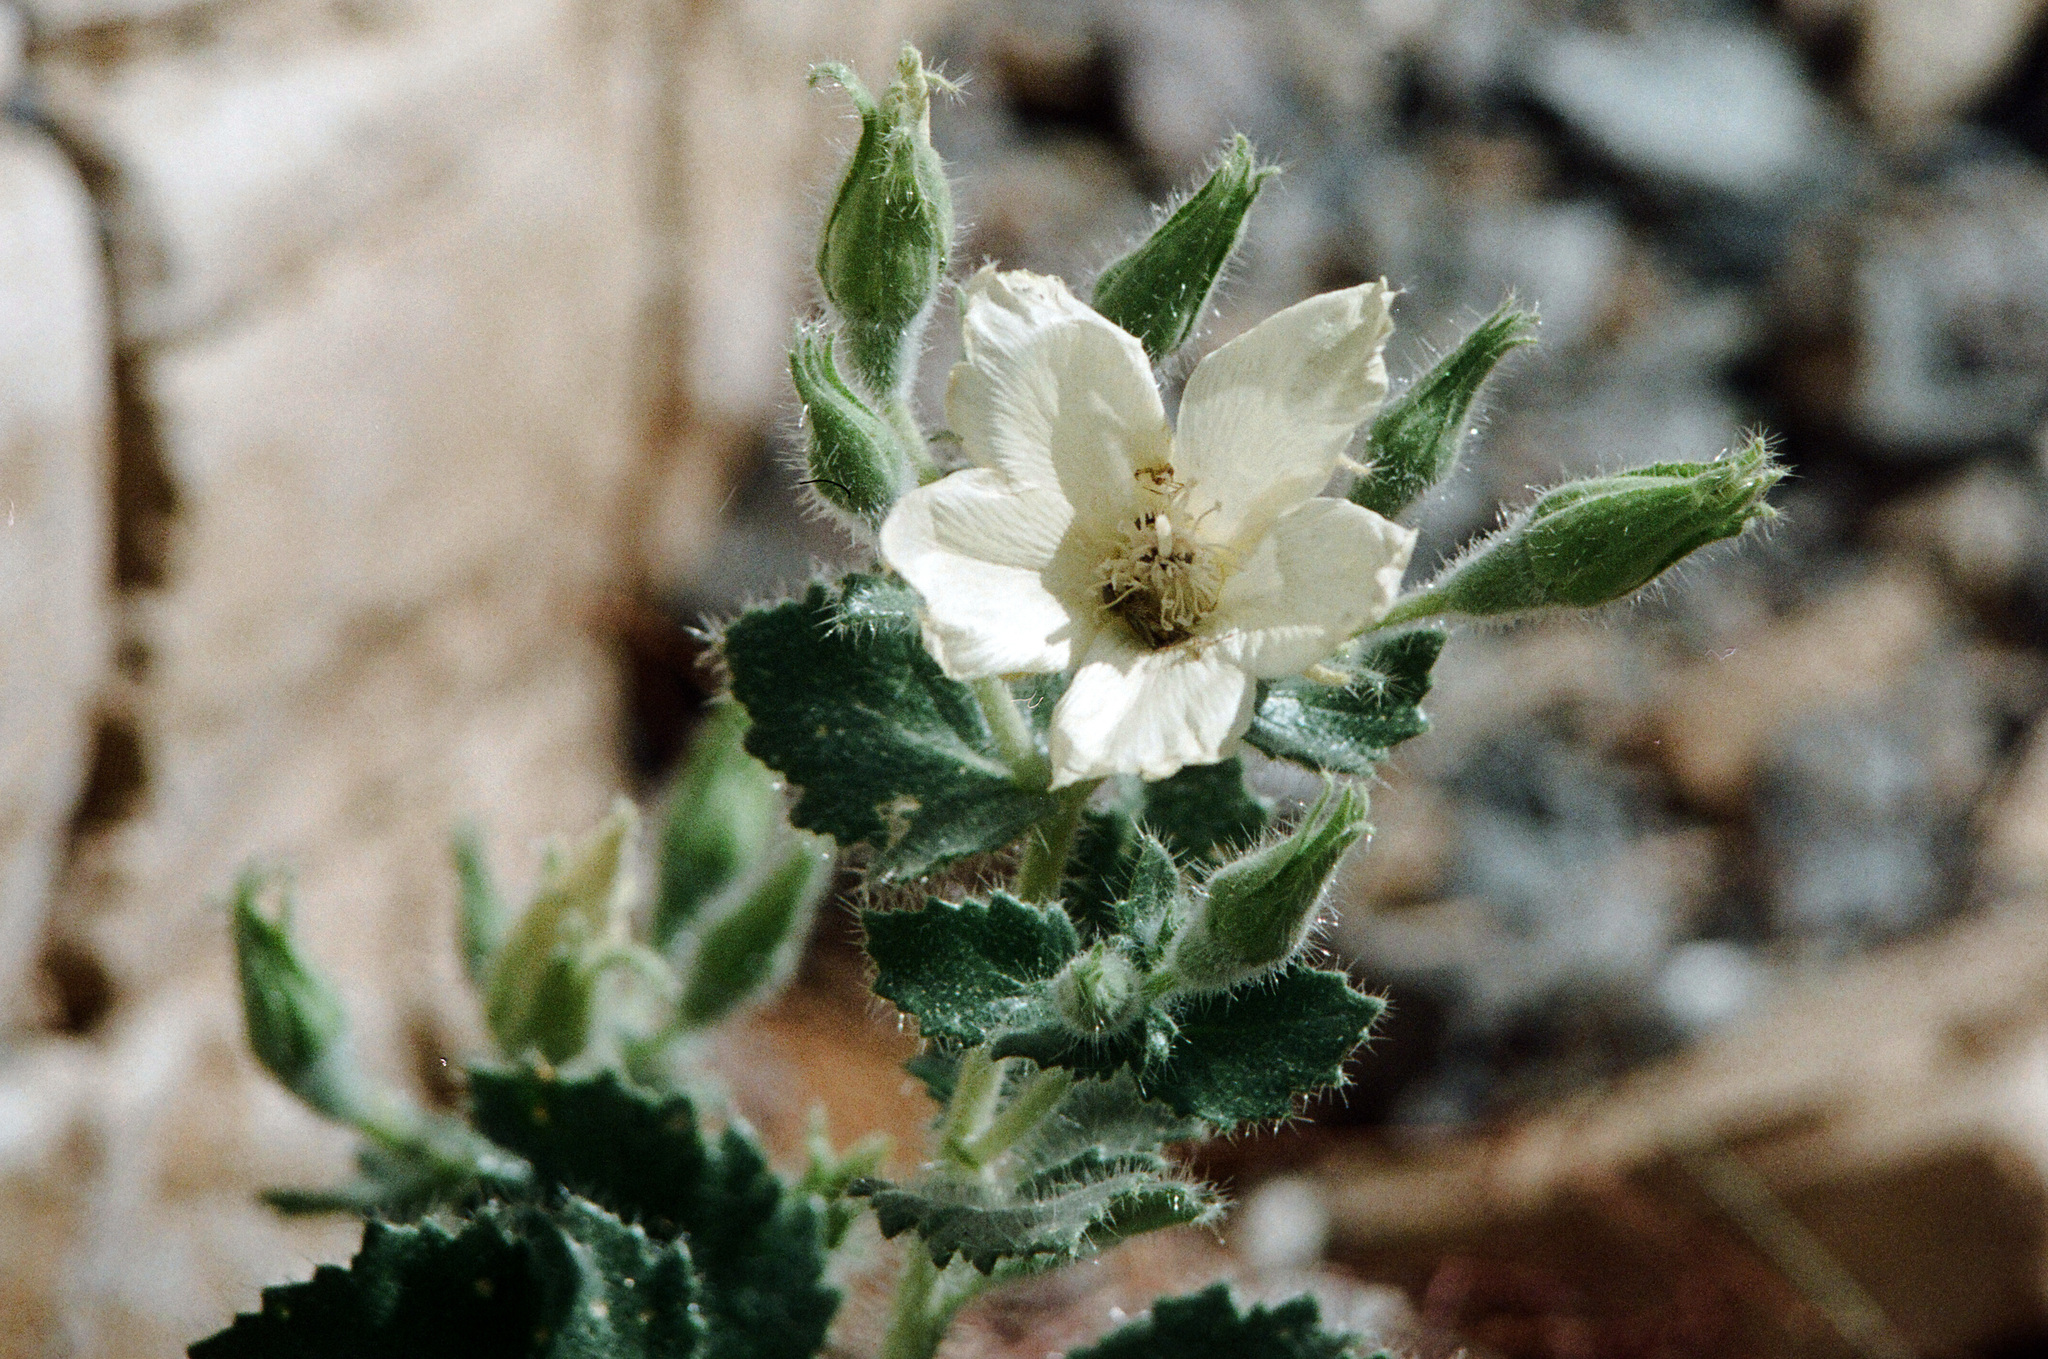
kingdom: Plantae
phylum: Tracheophyta
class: Magnoliopsida
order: Cornales
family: Loasaceae
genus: Eucnide
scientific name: Eucnide urens
